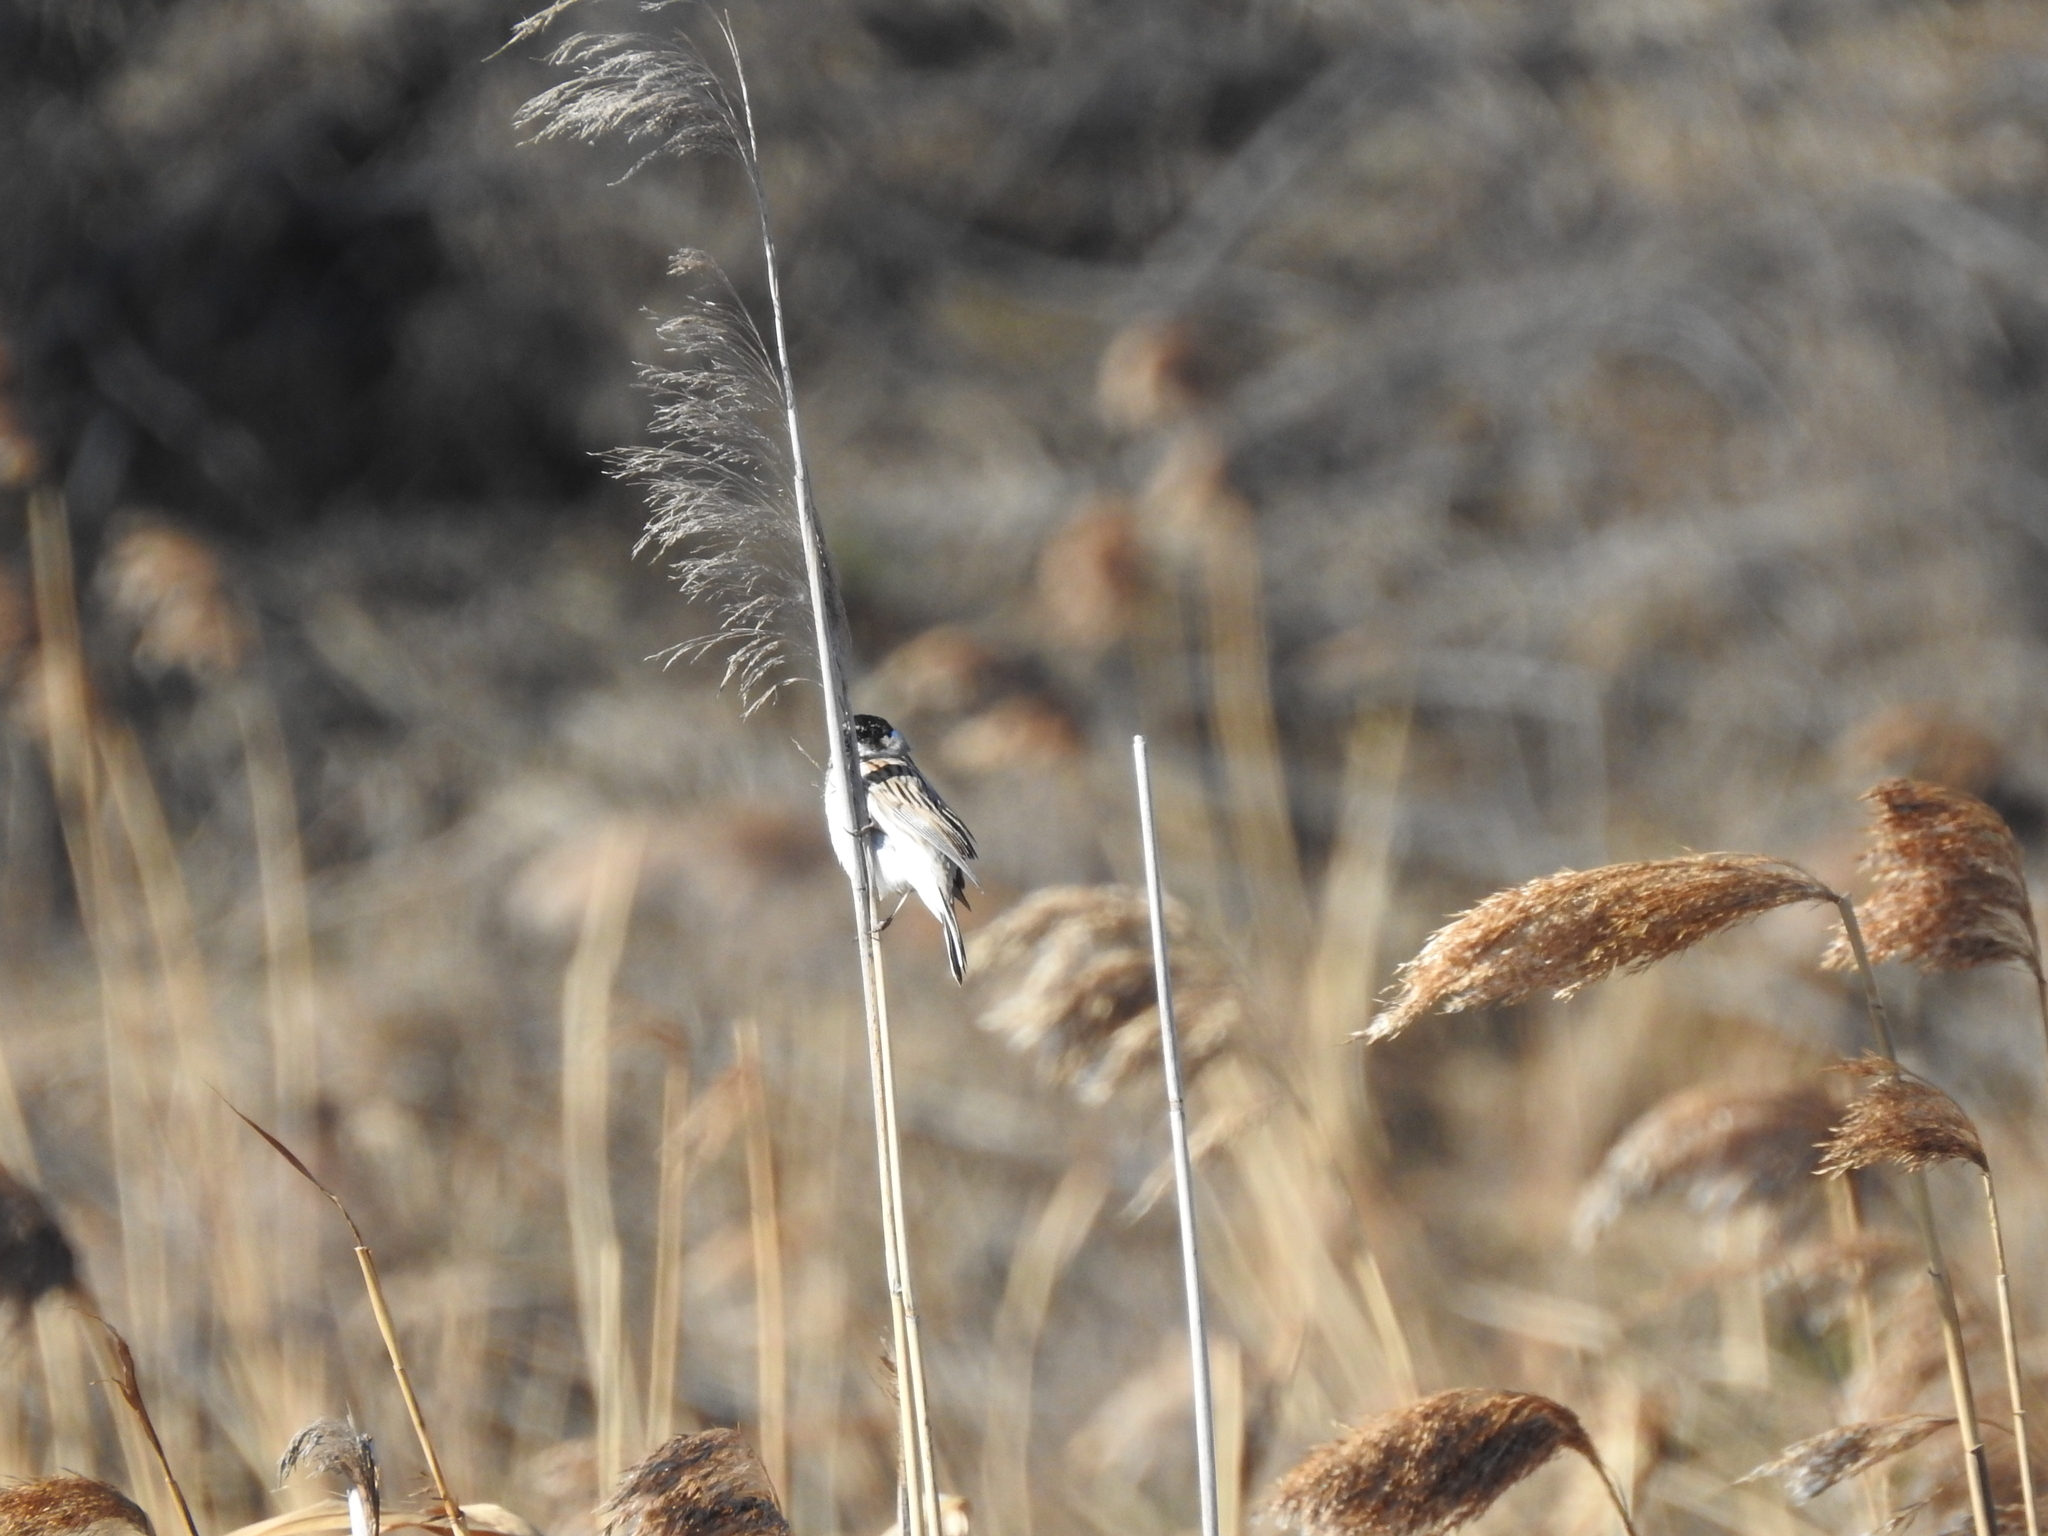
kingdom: Animalia
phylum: Chordata
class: Aves
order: Passeriformes
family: Emberizidae
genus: Emberiza
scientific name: Emberiza schoeniclus
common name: Reed bunting
